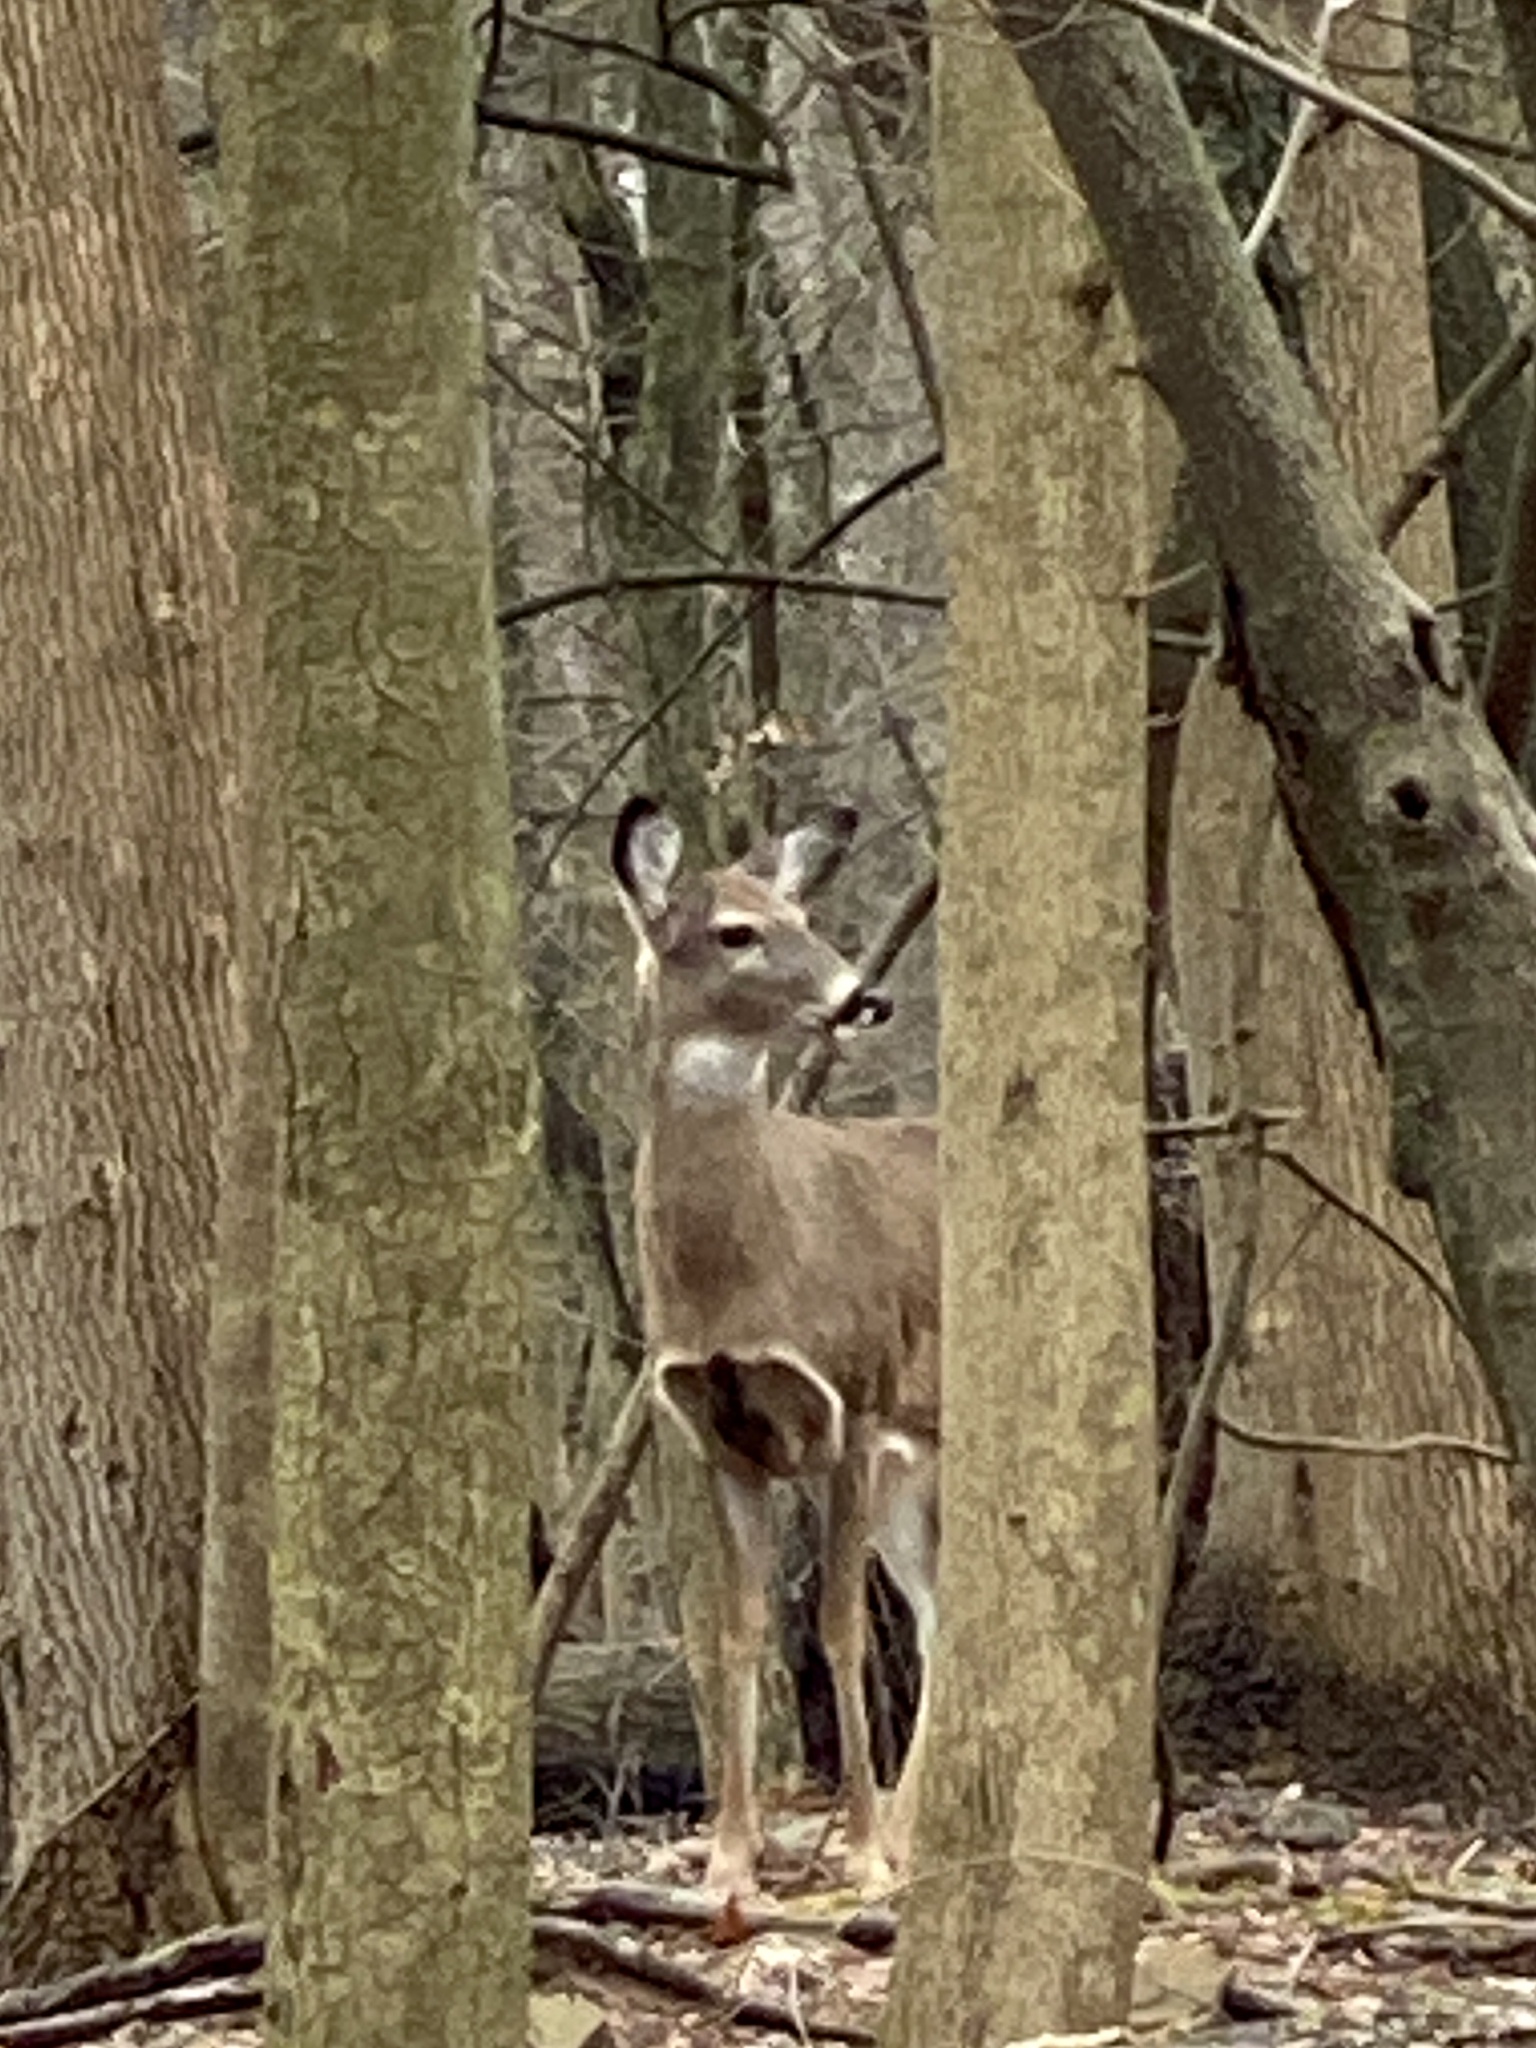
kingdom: Animalia
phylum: Chordata
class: Mammalia
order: Artiodactyla
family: Cervidae
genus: Odocoileus
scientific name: Odocoileus virginianus
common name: White-tailed deer
